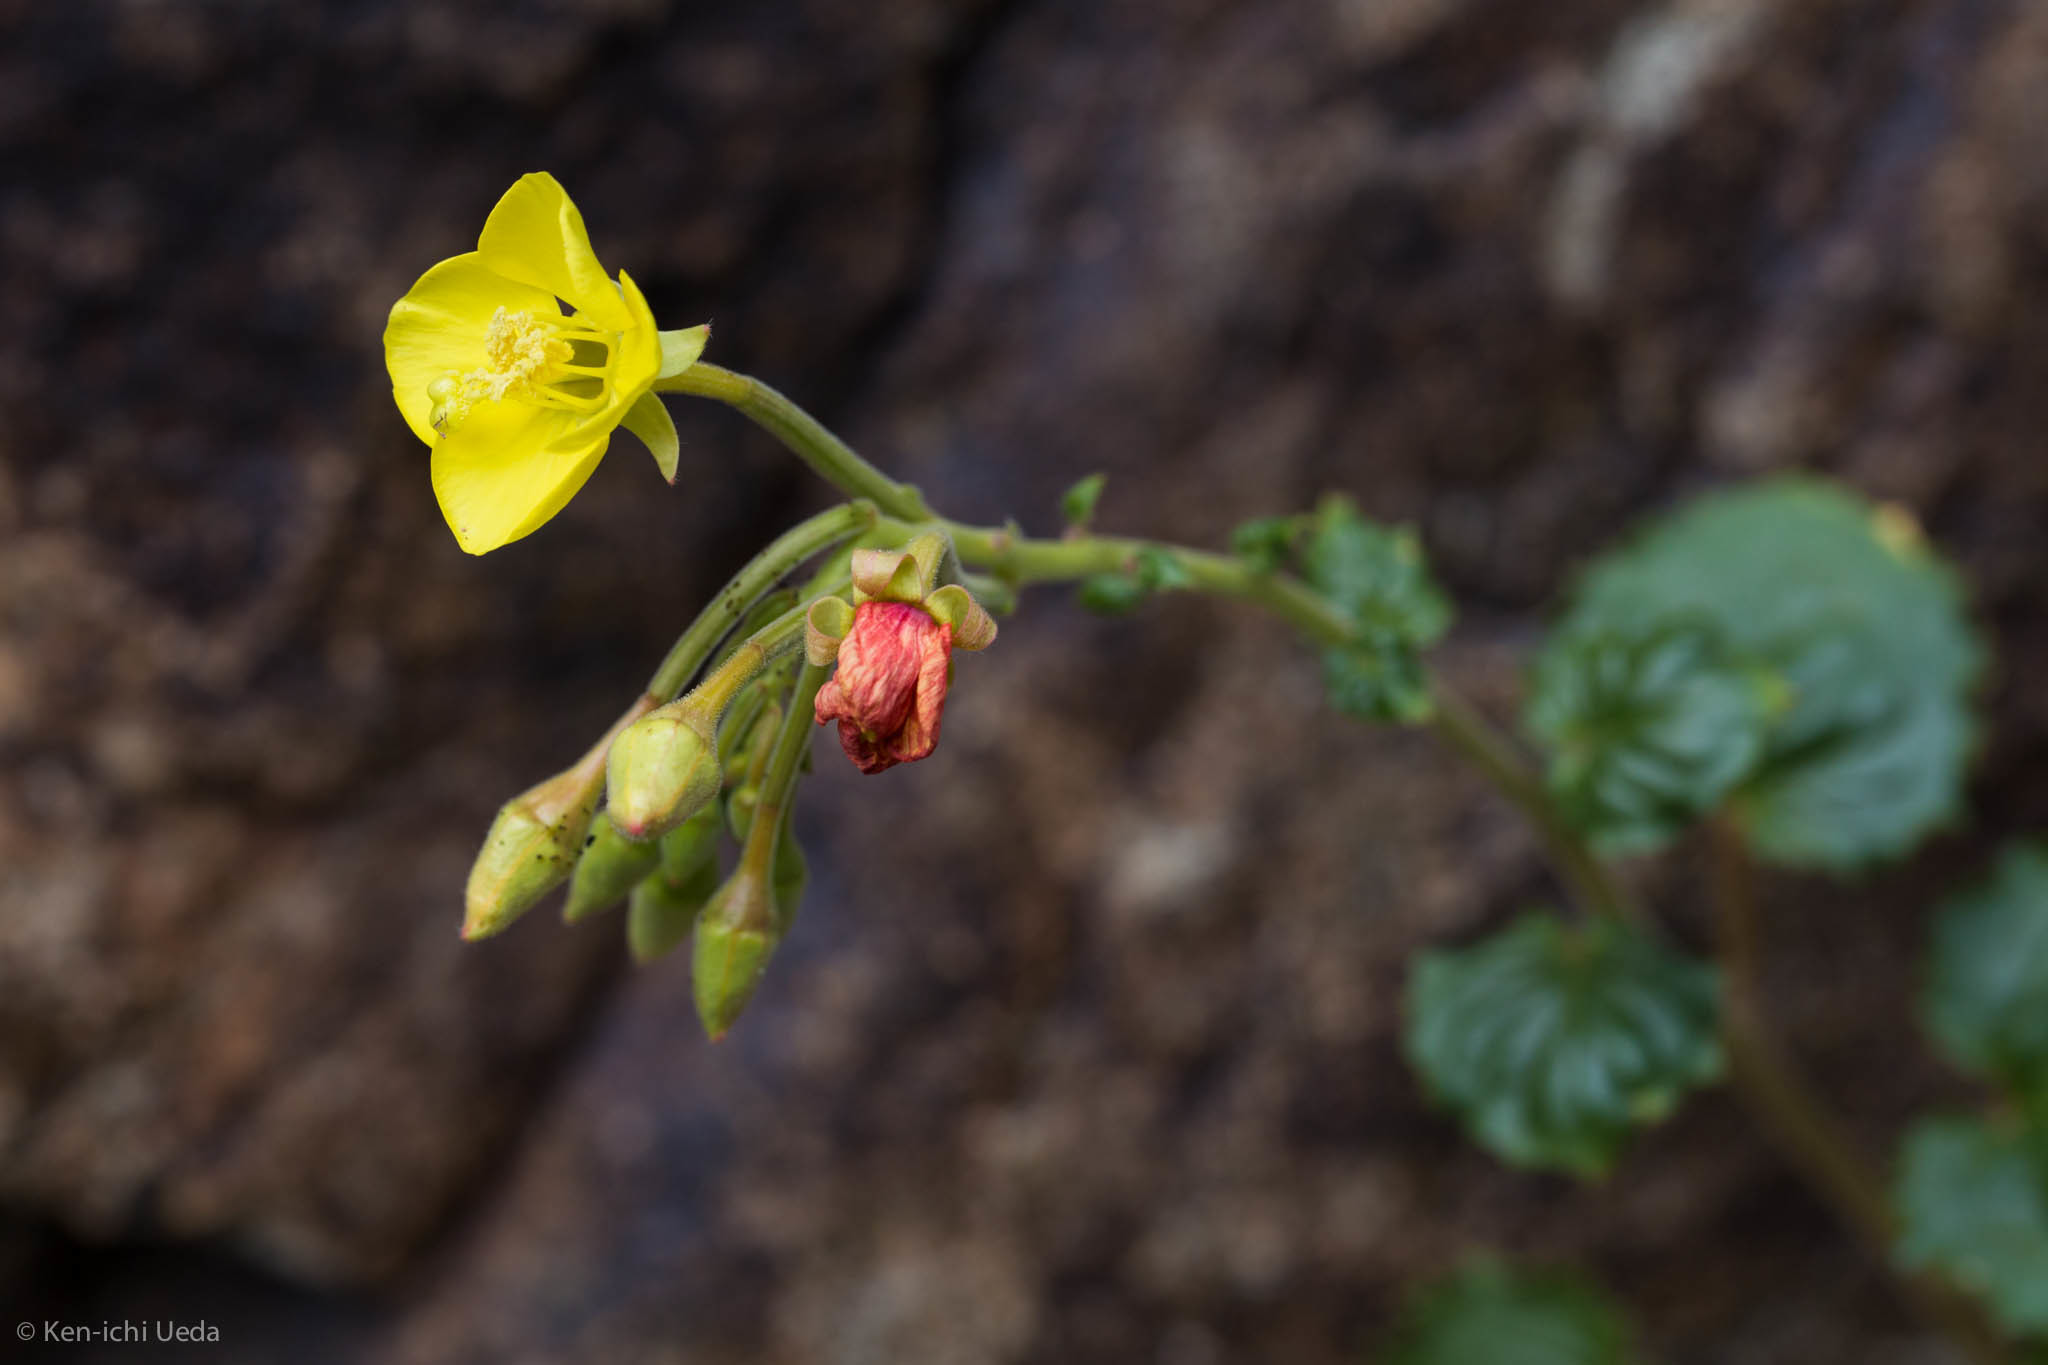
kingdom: Plantae
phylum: Tracheophyta
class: Magnoliopsida
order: Myrtales
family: Onagraceae
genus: Chylismia
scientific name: Chylismia cardiophylla
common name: Heartleaf suncup
